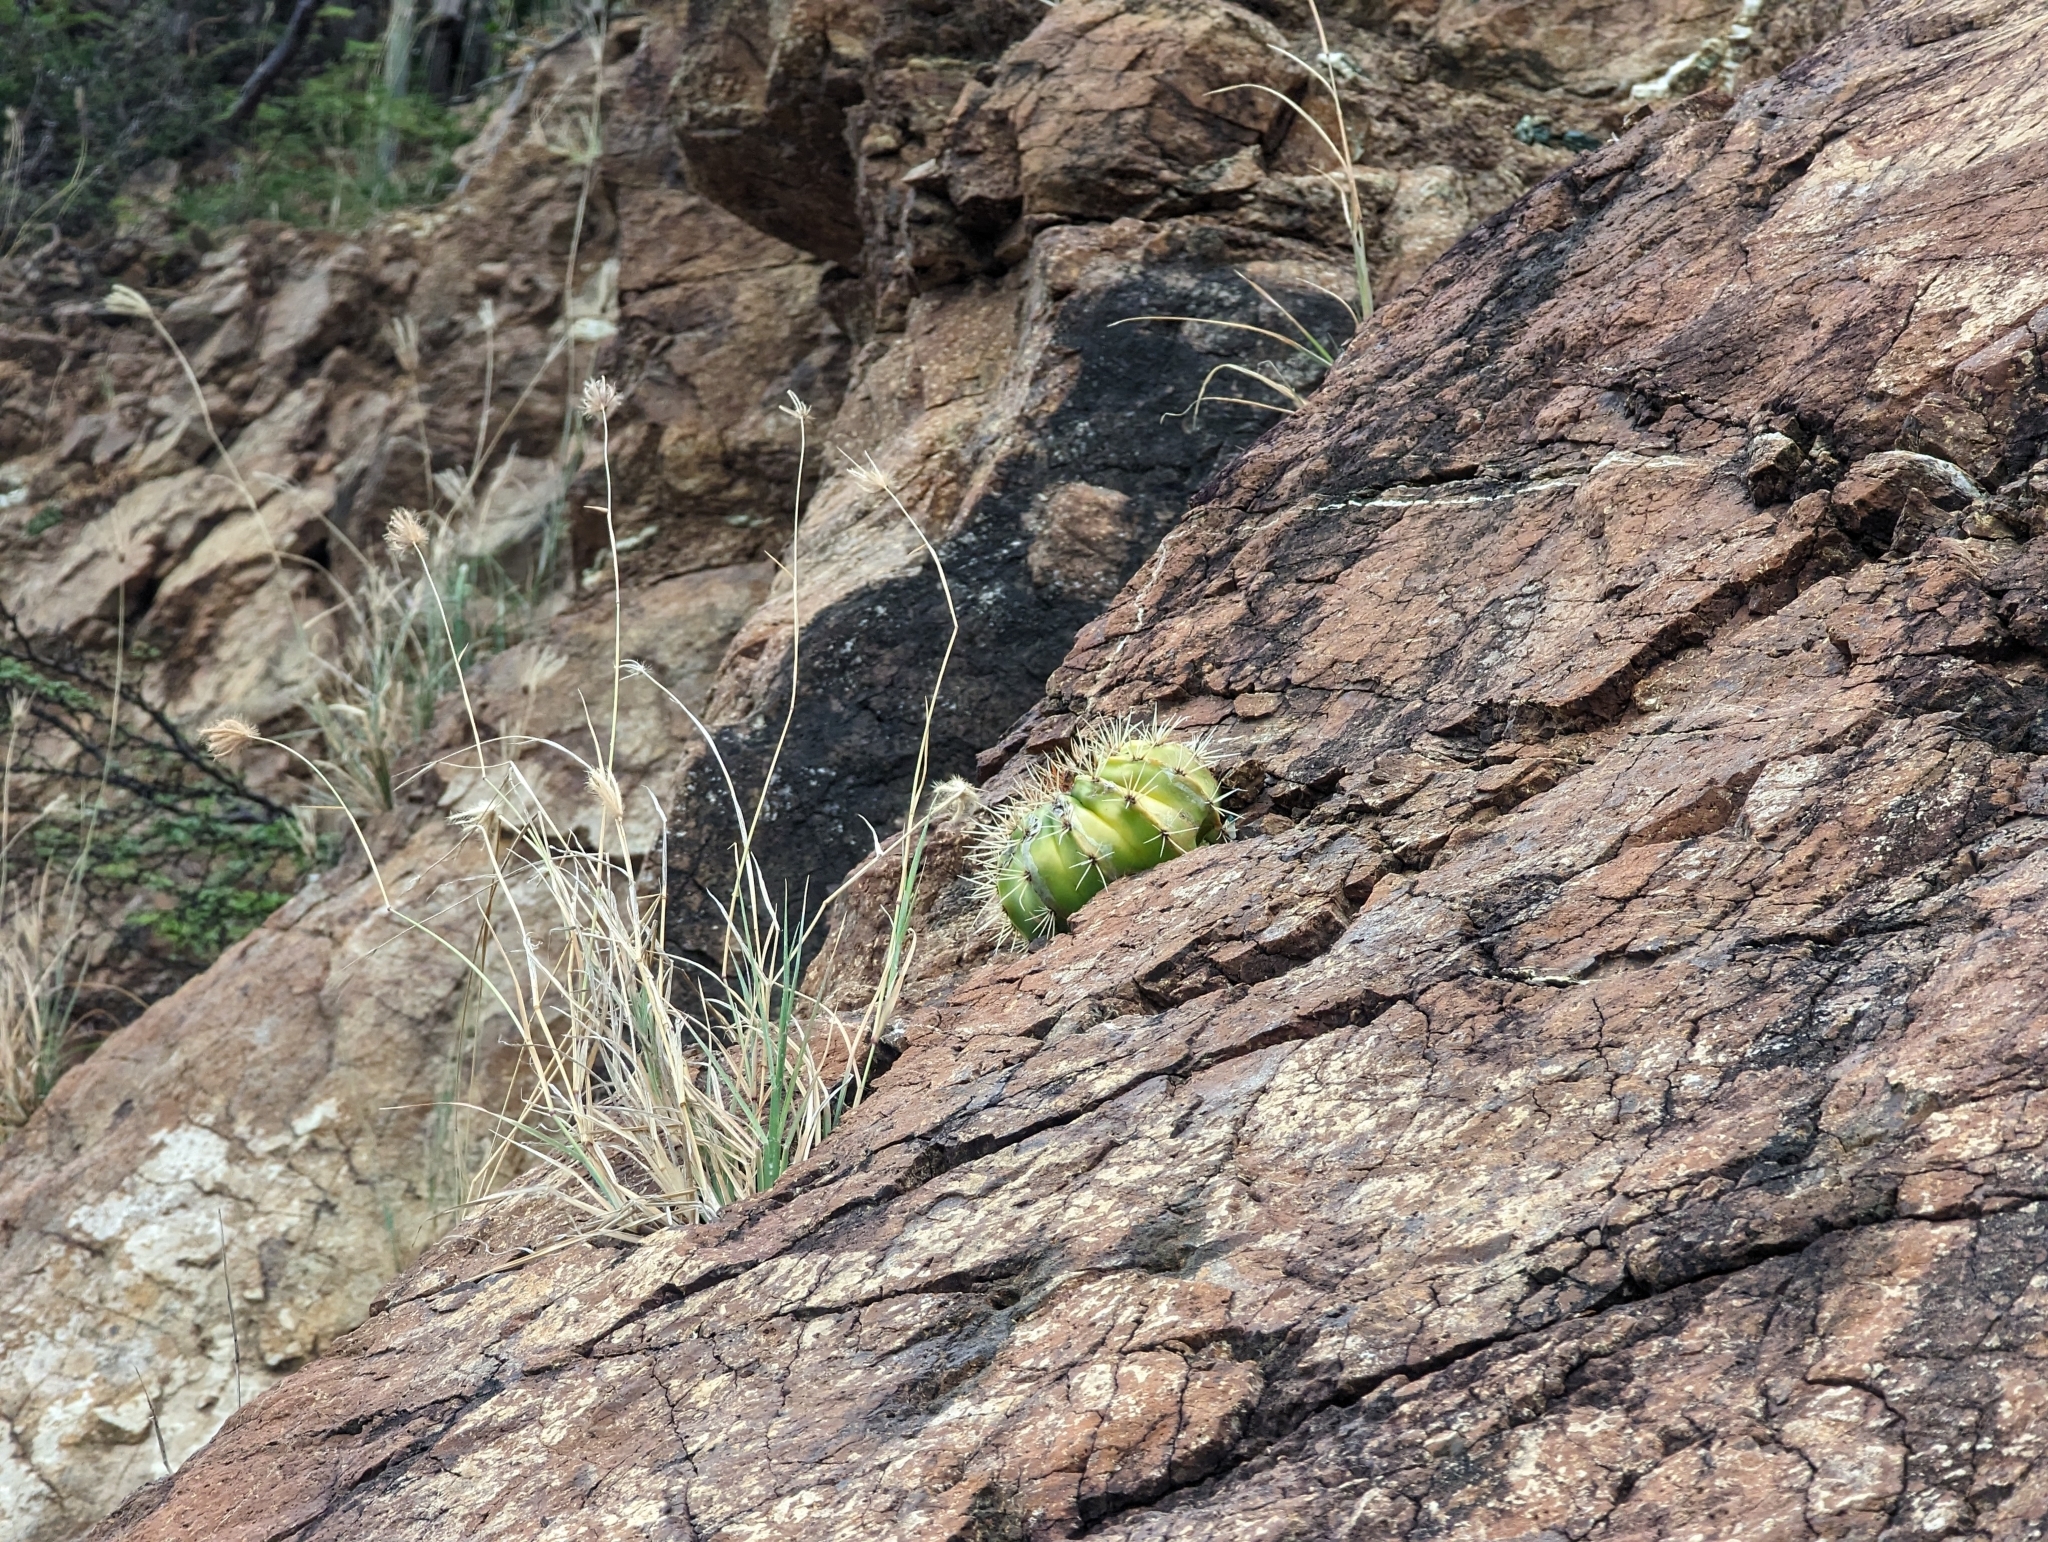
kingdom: Plantae
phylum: Tracheophyta
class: Magnoliopsida
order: Caryophyllales
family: Cactaceae
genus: Melocactus
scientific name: Melocactus intortus
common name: Barrel cactus
